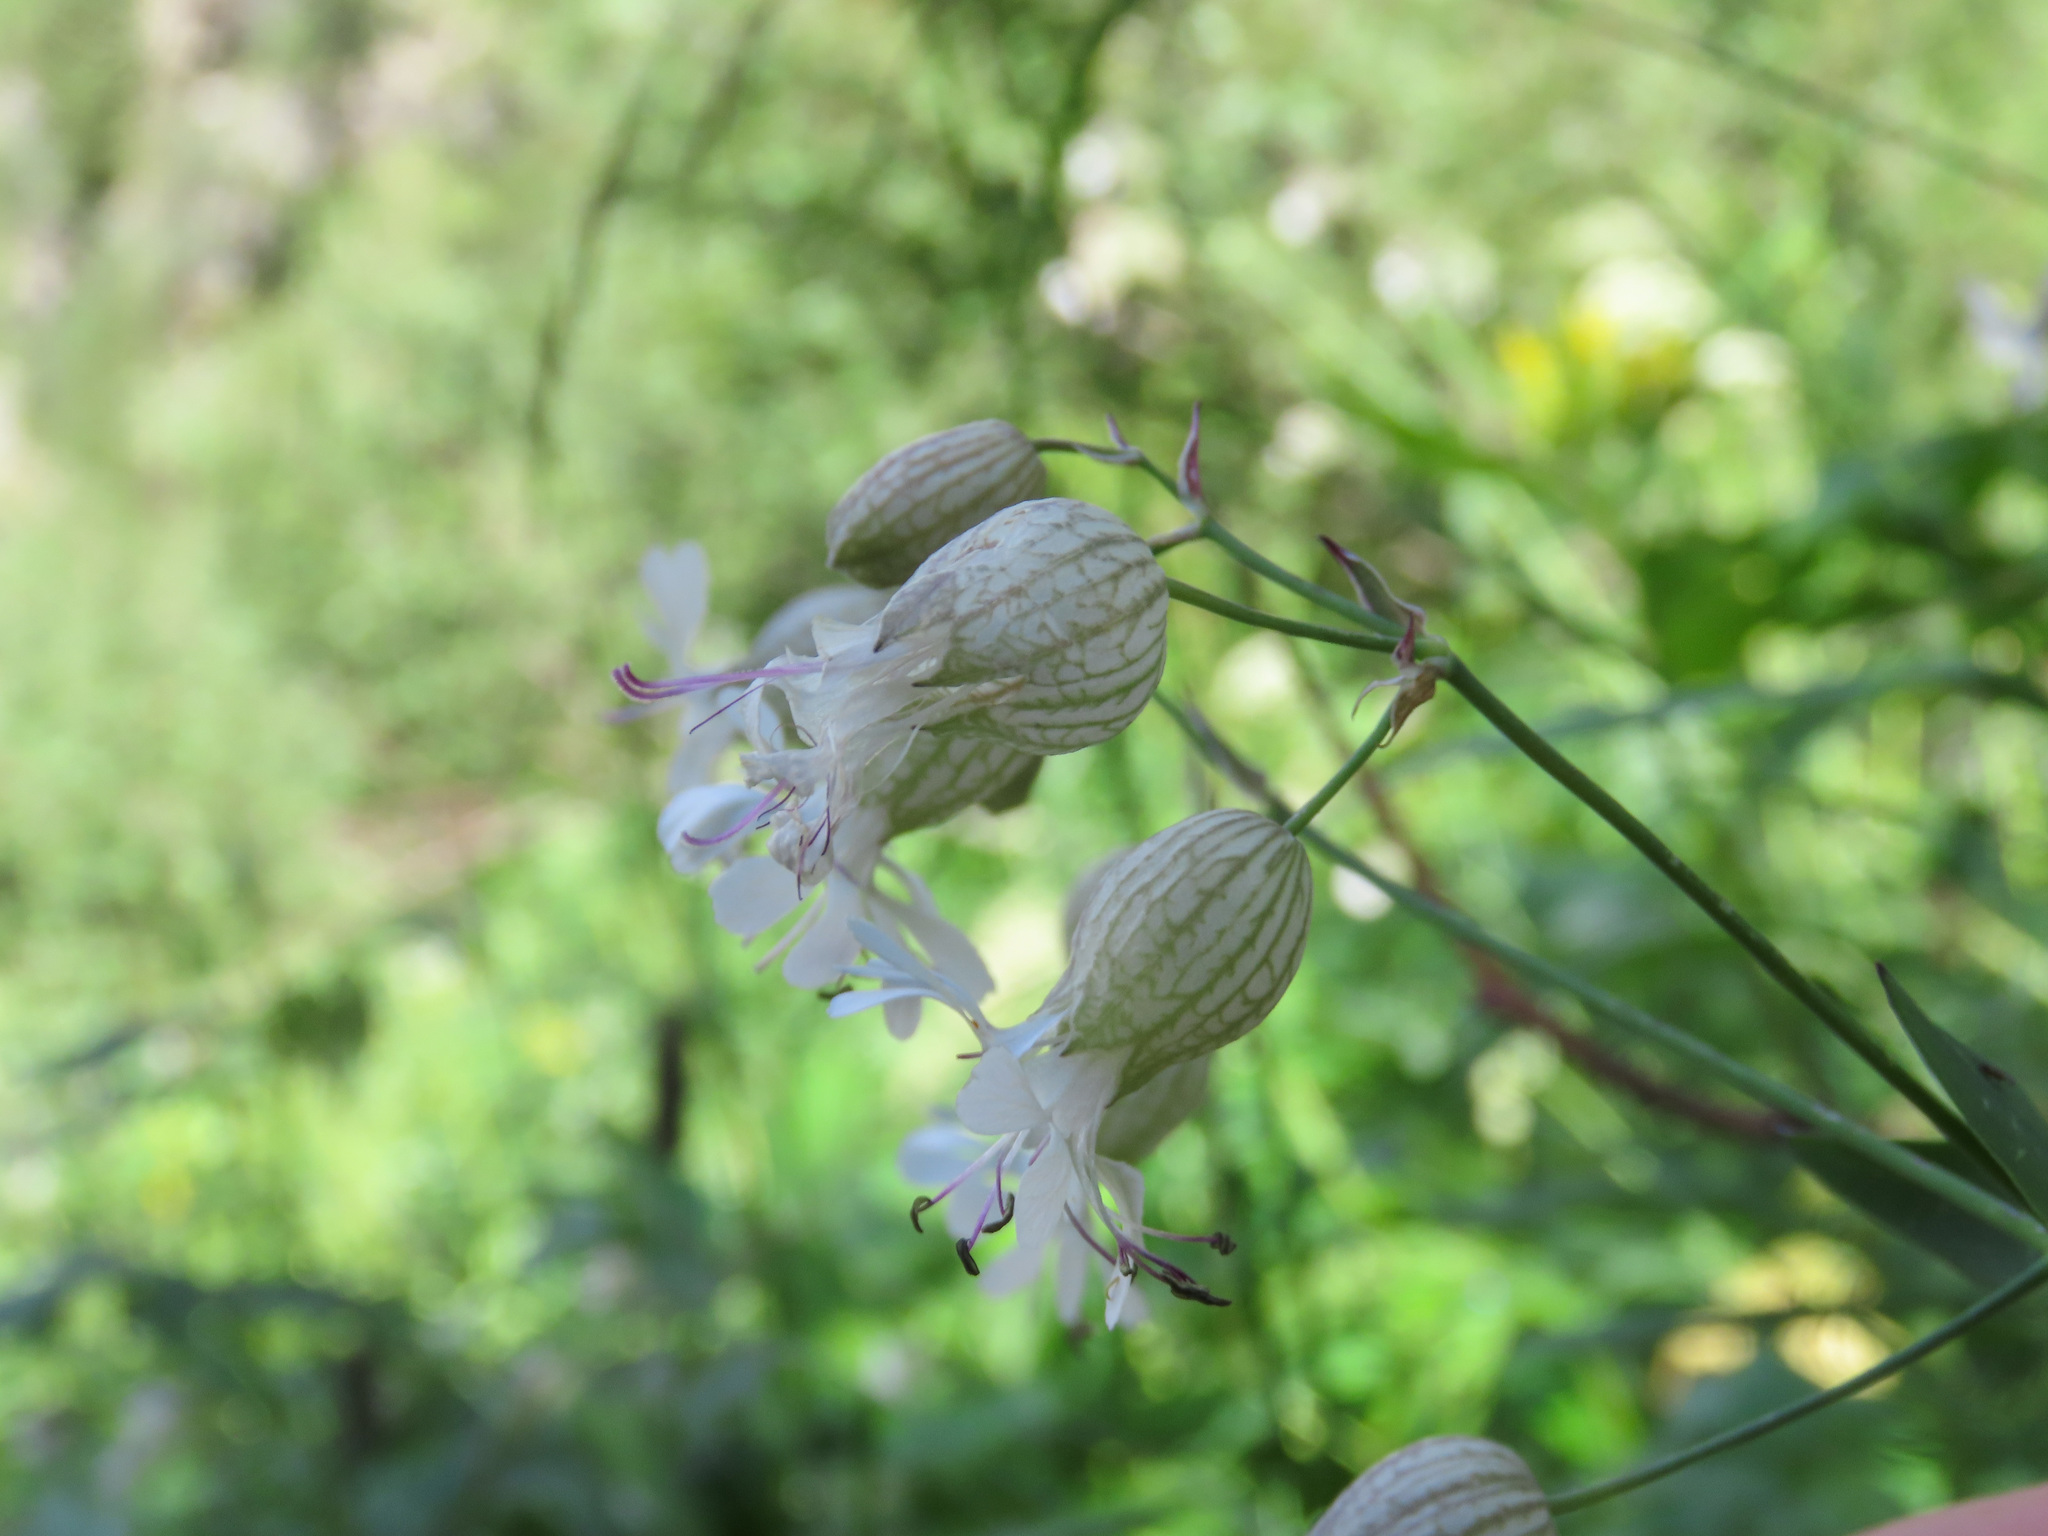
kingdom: Plantae
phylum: Tracheophyta
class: Magnoliopsida
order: Caryophyllales
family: Caryophyllaceae
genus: Silene
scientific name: Silene vulgaris
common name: Bladder campion
